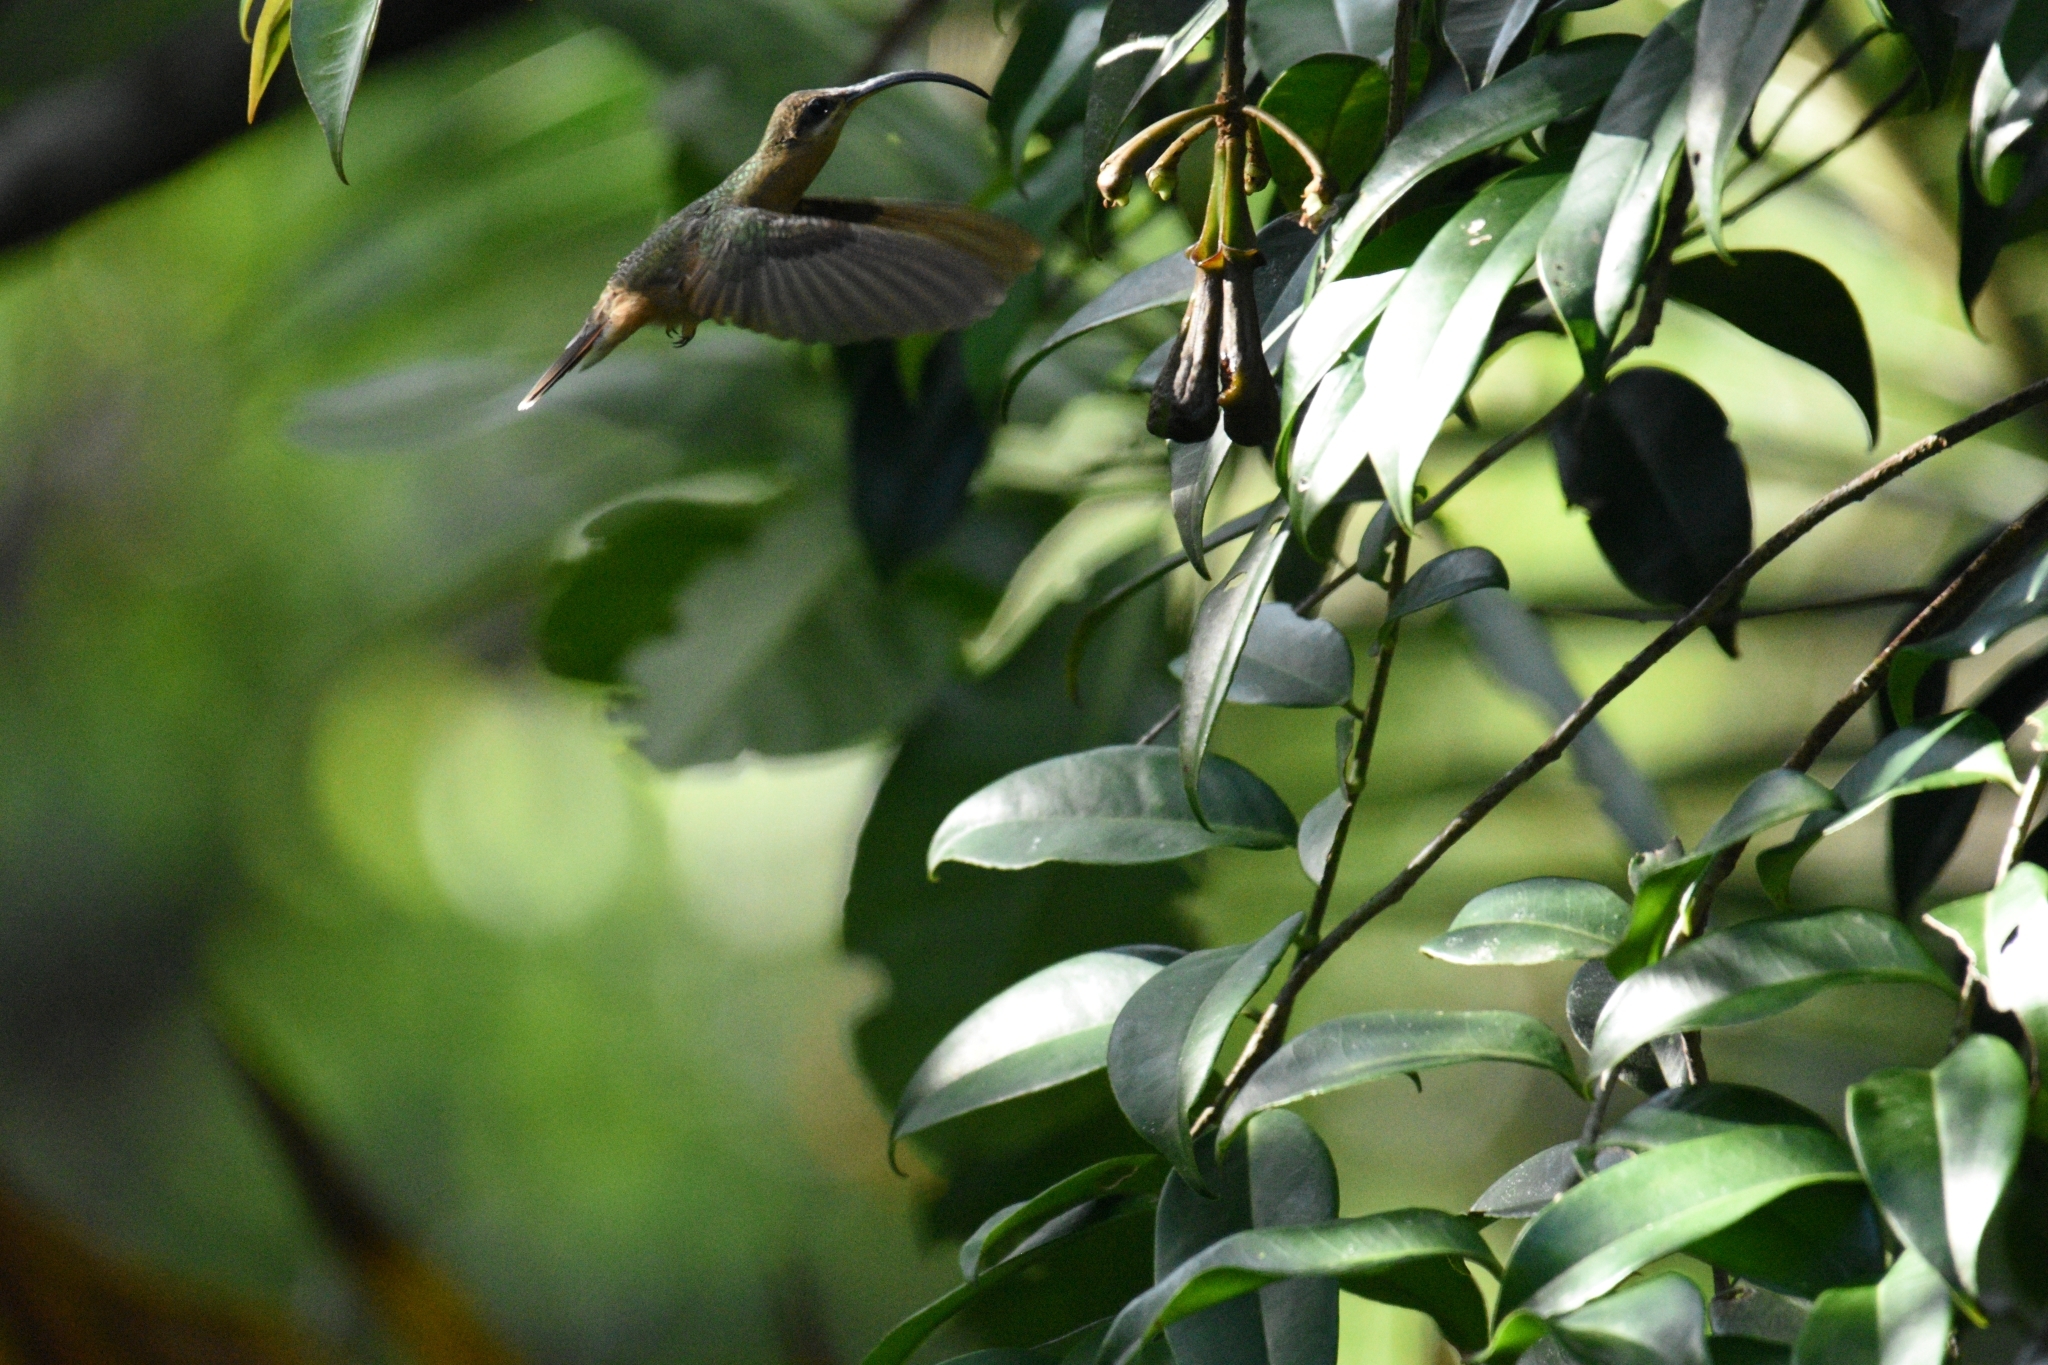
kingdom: Animalia
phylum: Chordata
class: Aves
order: Apodiformes
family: Trochilidae
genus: Glaucis
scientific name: Glaucis hirsutus
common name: Rufous-breasted hermit
